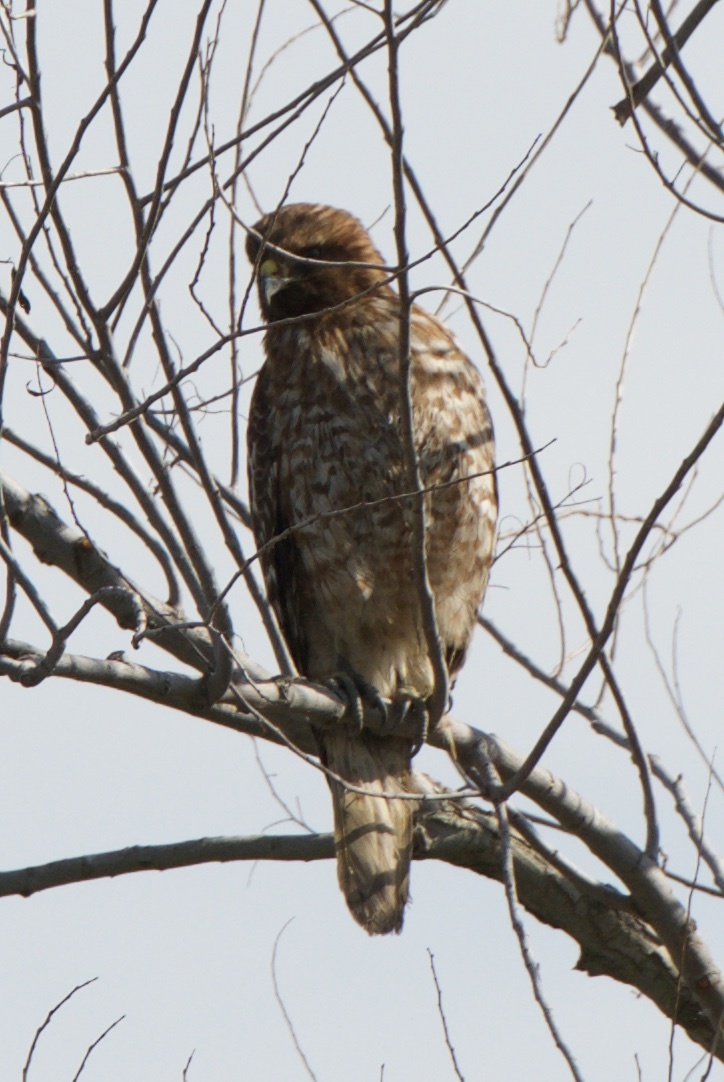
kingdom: Animalia
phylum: Chordata
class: Aves
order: Accipitriformes
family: Accipitridae
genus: Buteo
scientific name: Buteo lineatus
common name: Red-shouldered hawk
